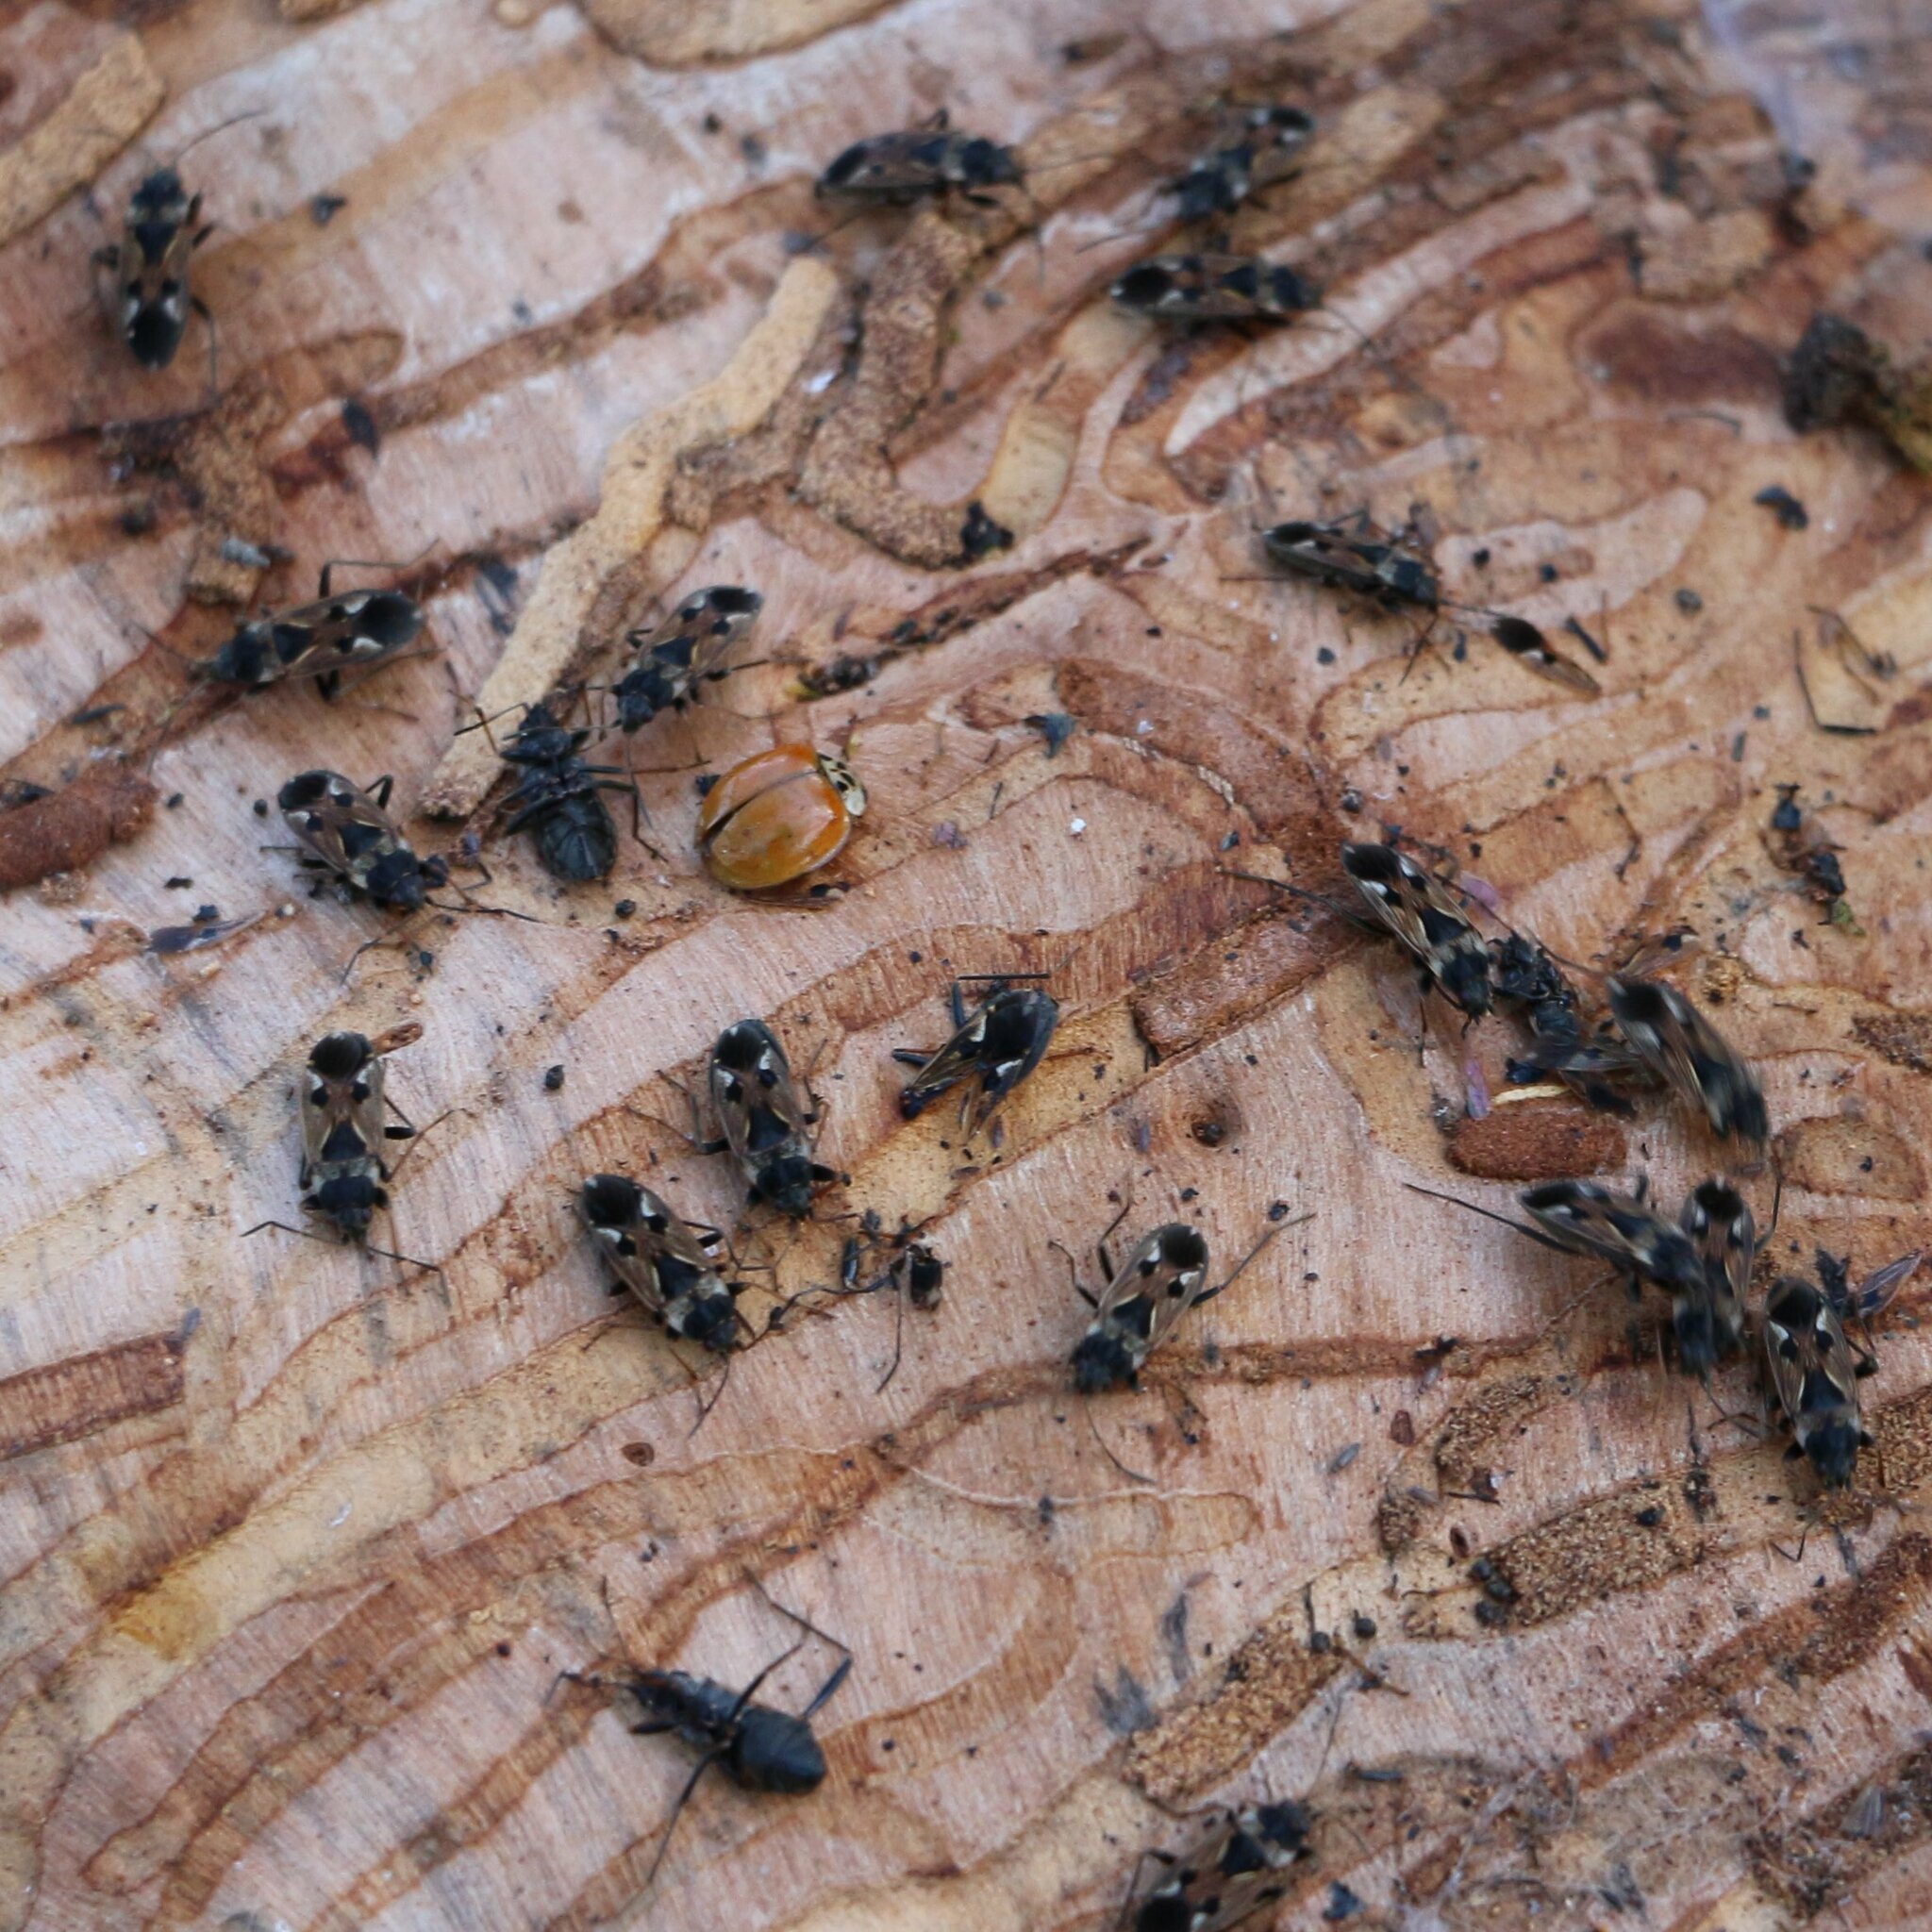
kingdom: Animalia
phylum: Arthropoda
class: Insecta
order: Hemiptera
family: Rhyparochromidae
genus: Rhyparochromus
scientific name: Rhyparochromus vulgaris
